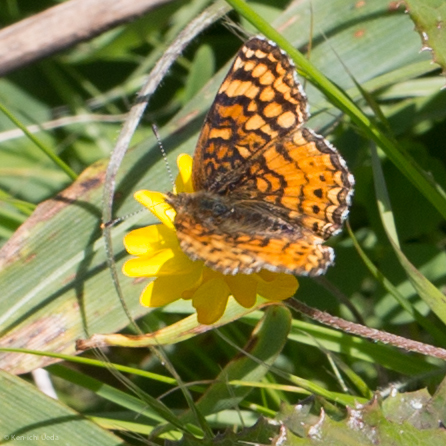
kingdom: Animalia
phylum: Arthropoda
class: Insecta
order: Lepidoptera
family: Nymphalidae
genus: Eresia
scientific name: Eresia aveyrona
